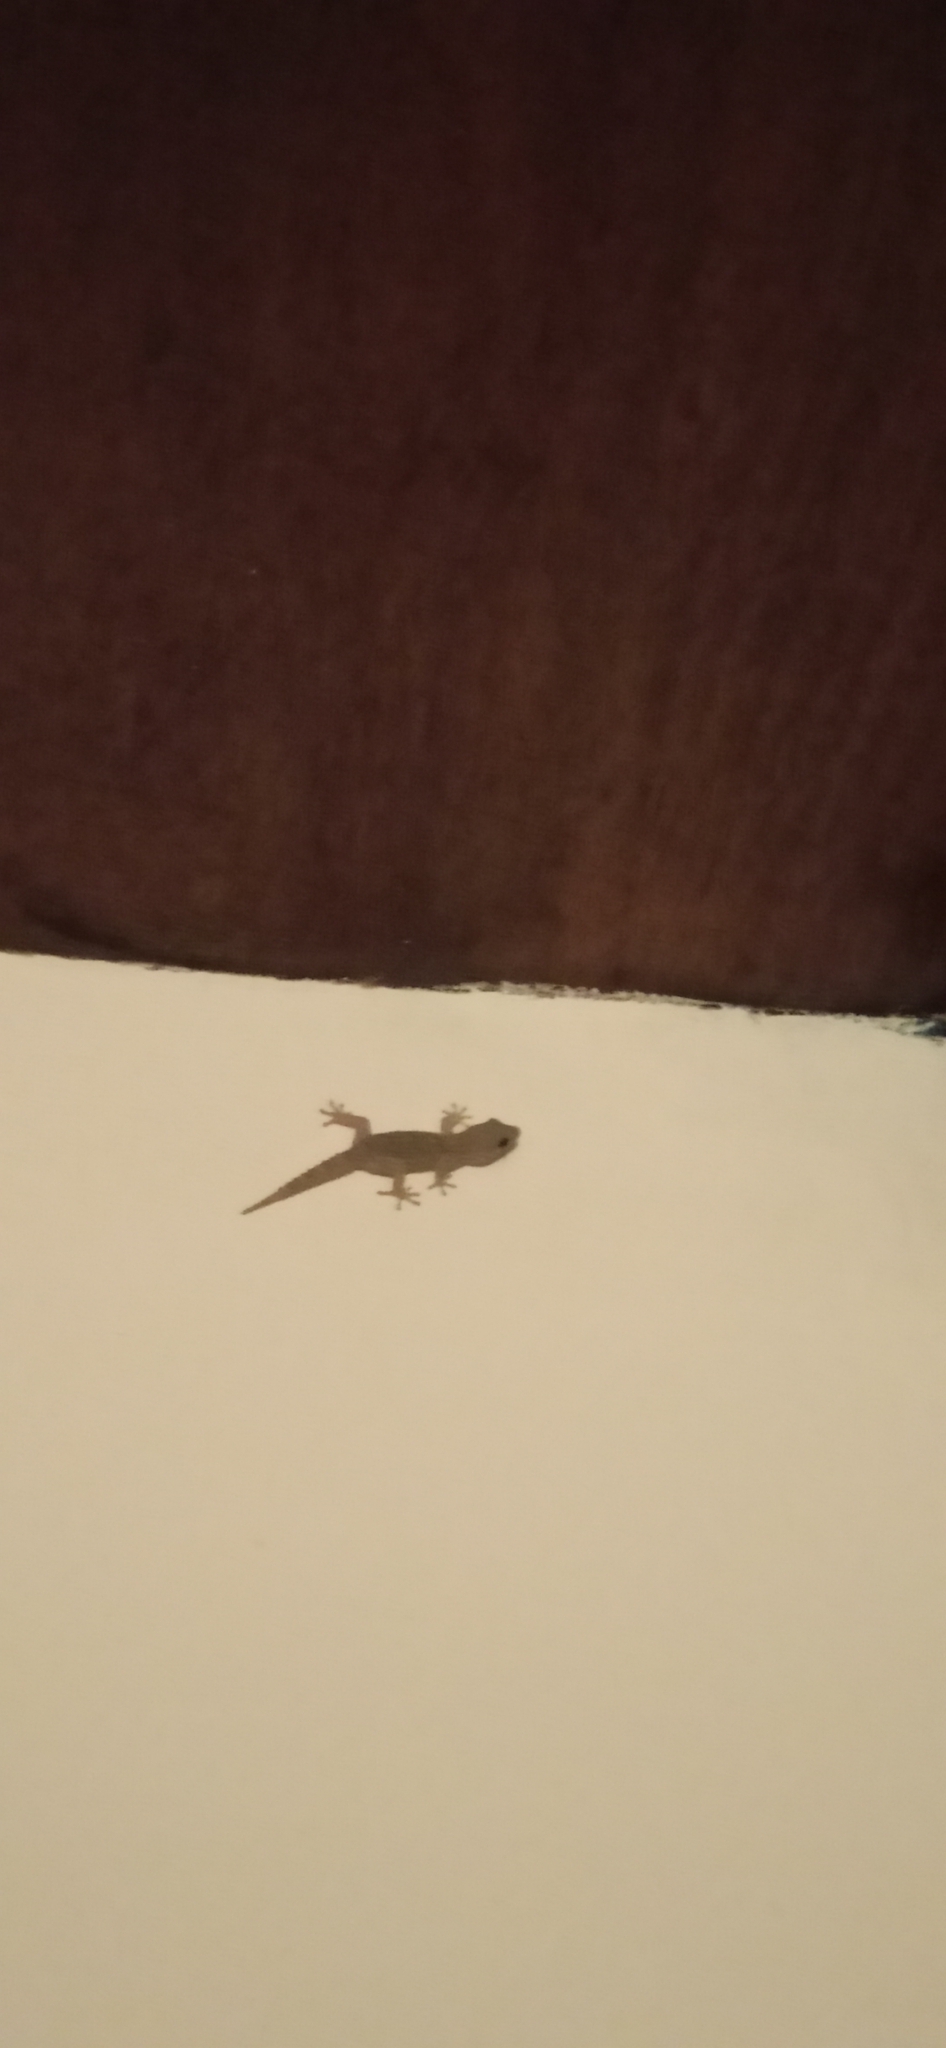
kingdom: Animalia
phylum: Chordata
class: Squamata
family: Phyllodactylidae
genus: Tarentola
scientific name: Tarentola delalandii
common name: Tenerife wall gecko
